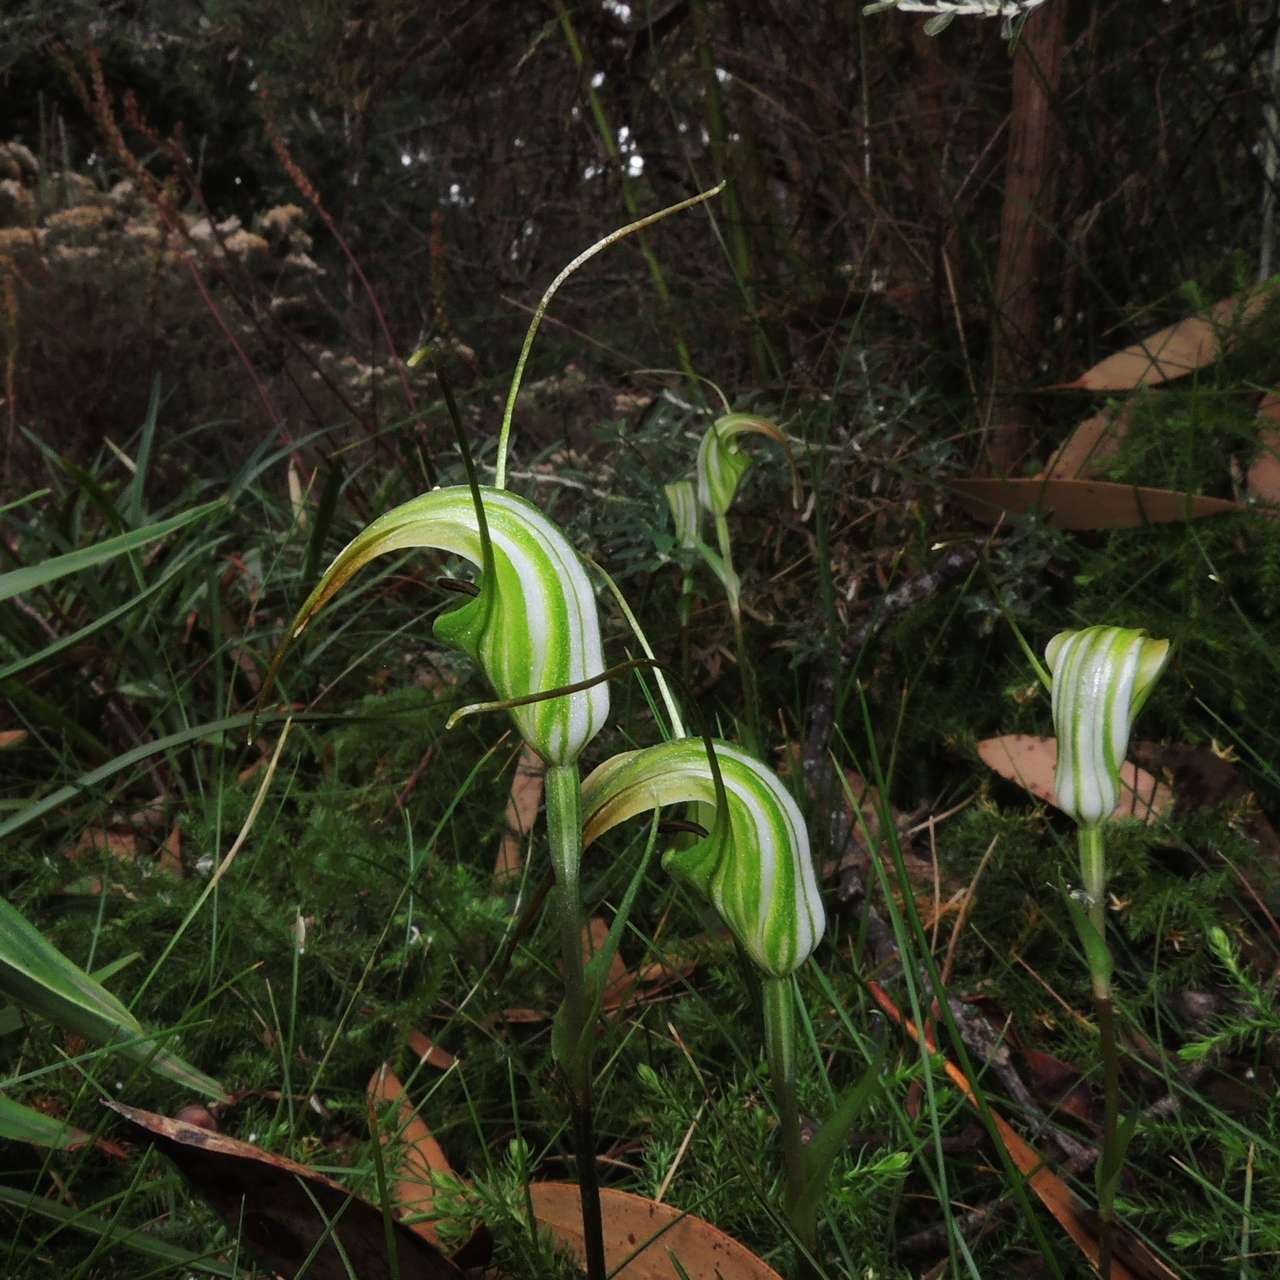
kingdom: Plantae
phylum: Tracheophyta
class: Liliopsida
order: Asparagales
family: Orchidaceae
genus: Pterostylis
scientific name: Pterostylis decurva
